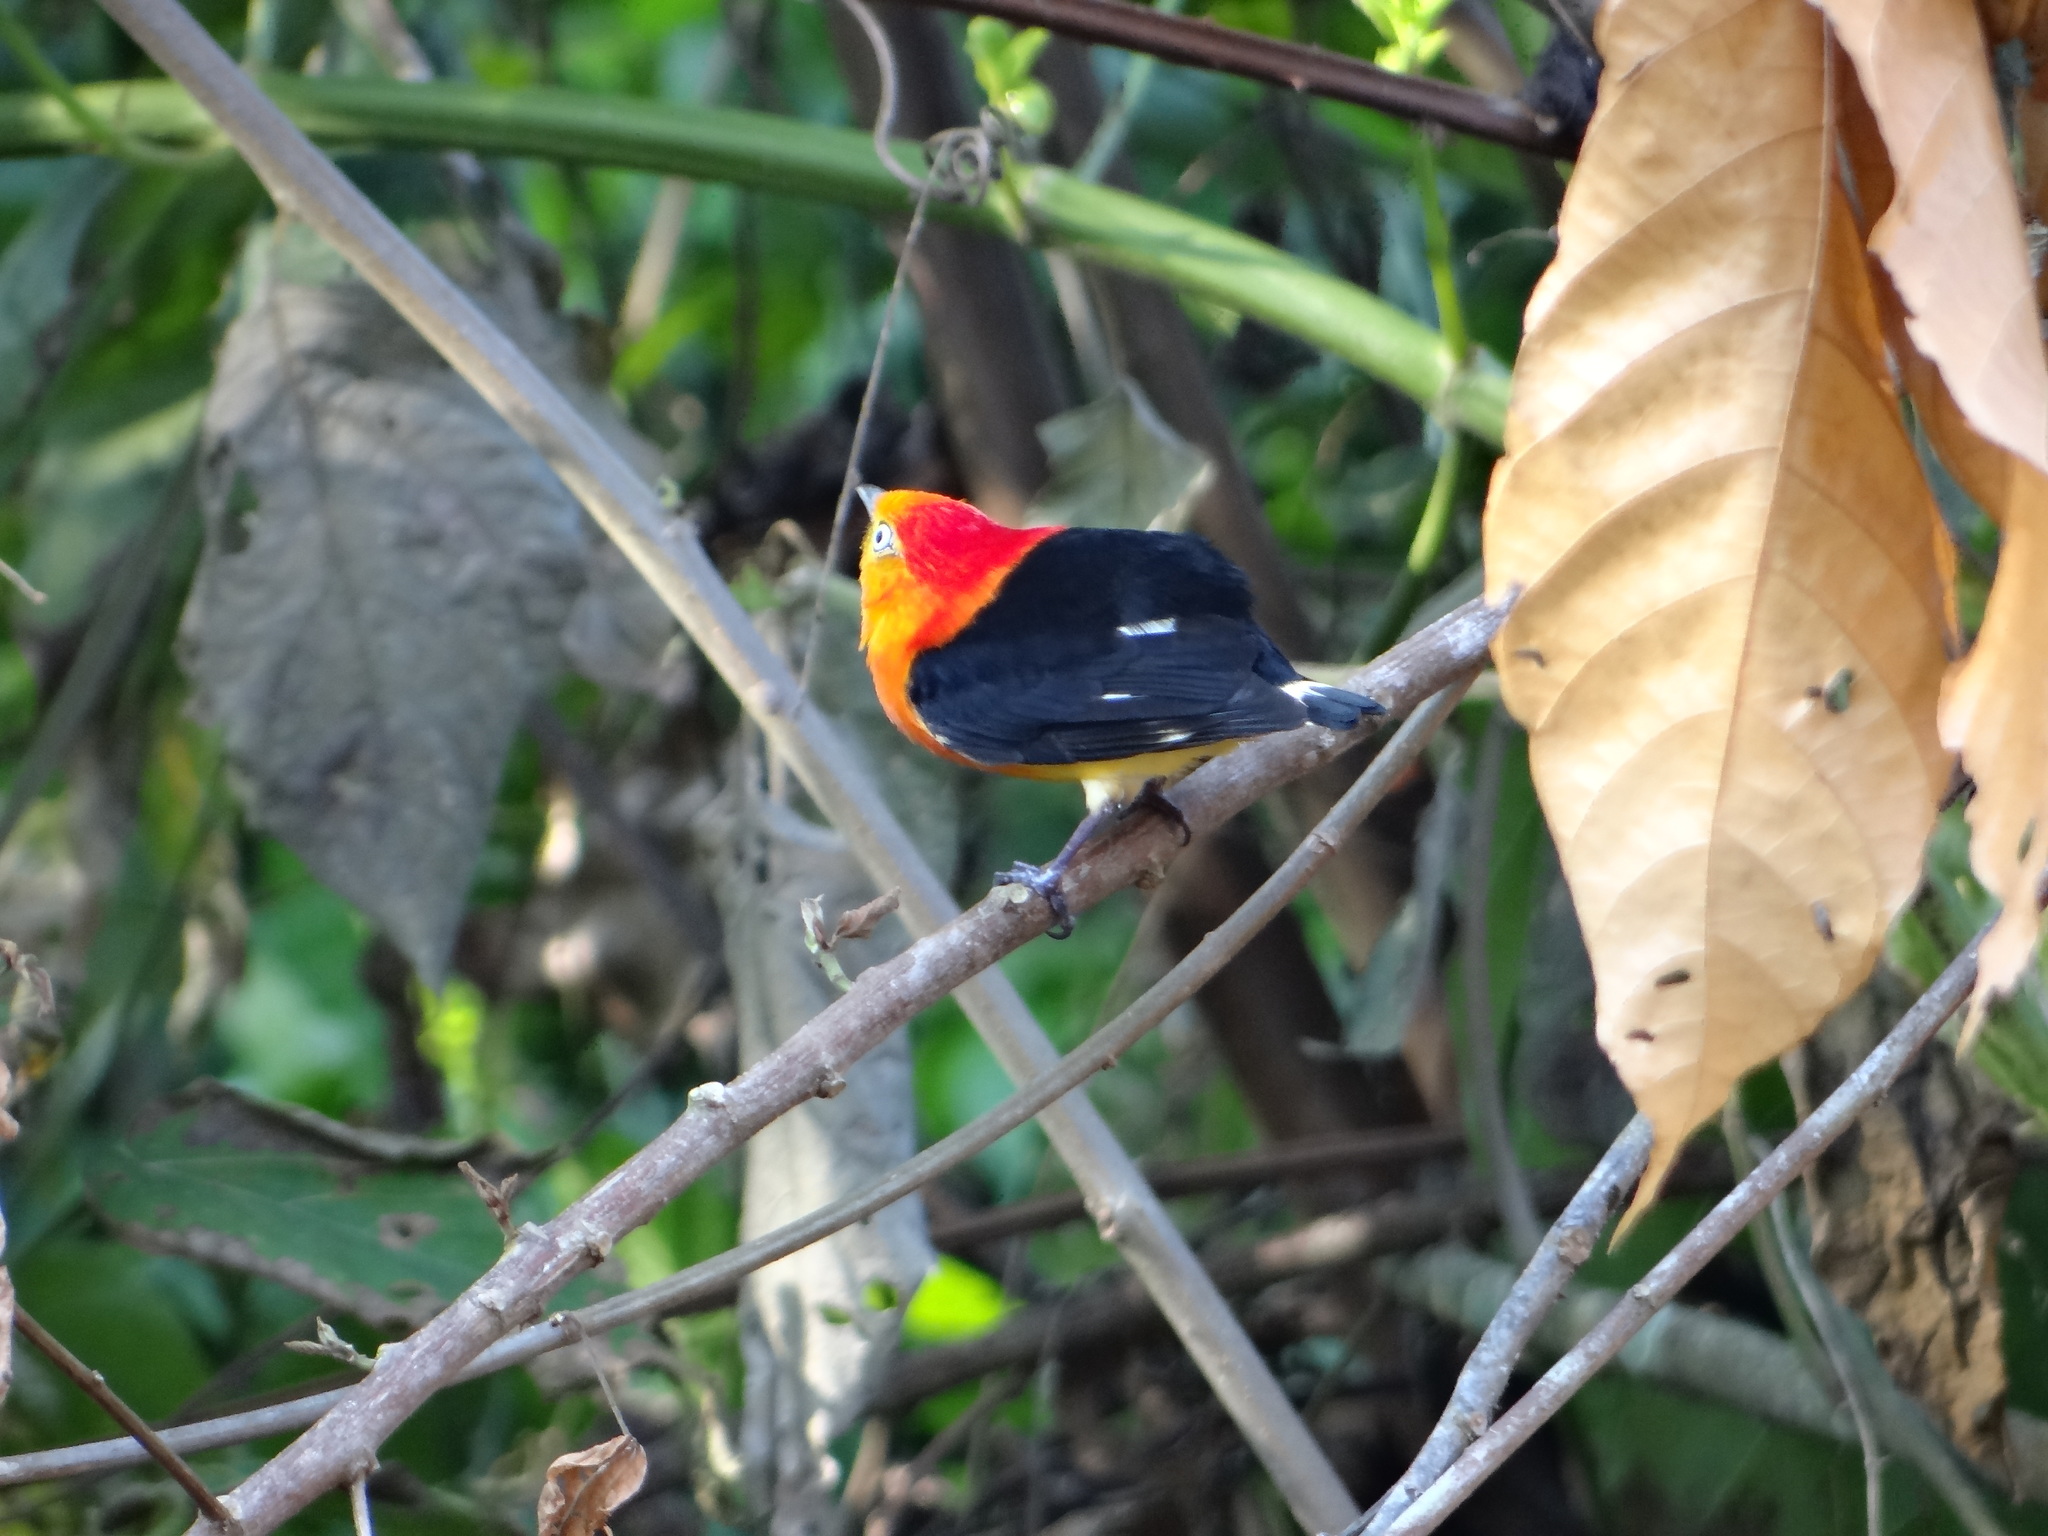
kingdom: Animalia
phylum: Chordata
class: Aves
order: Passeriformes
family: Pipridae
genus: Pipra
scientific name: Pipra fasciicauda
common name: Band-tailed manakin
